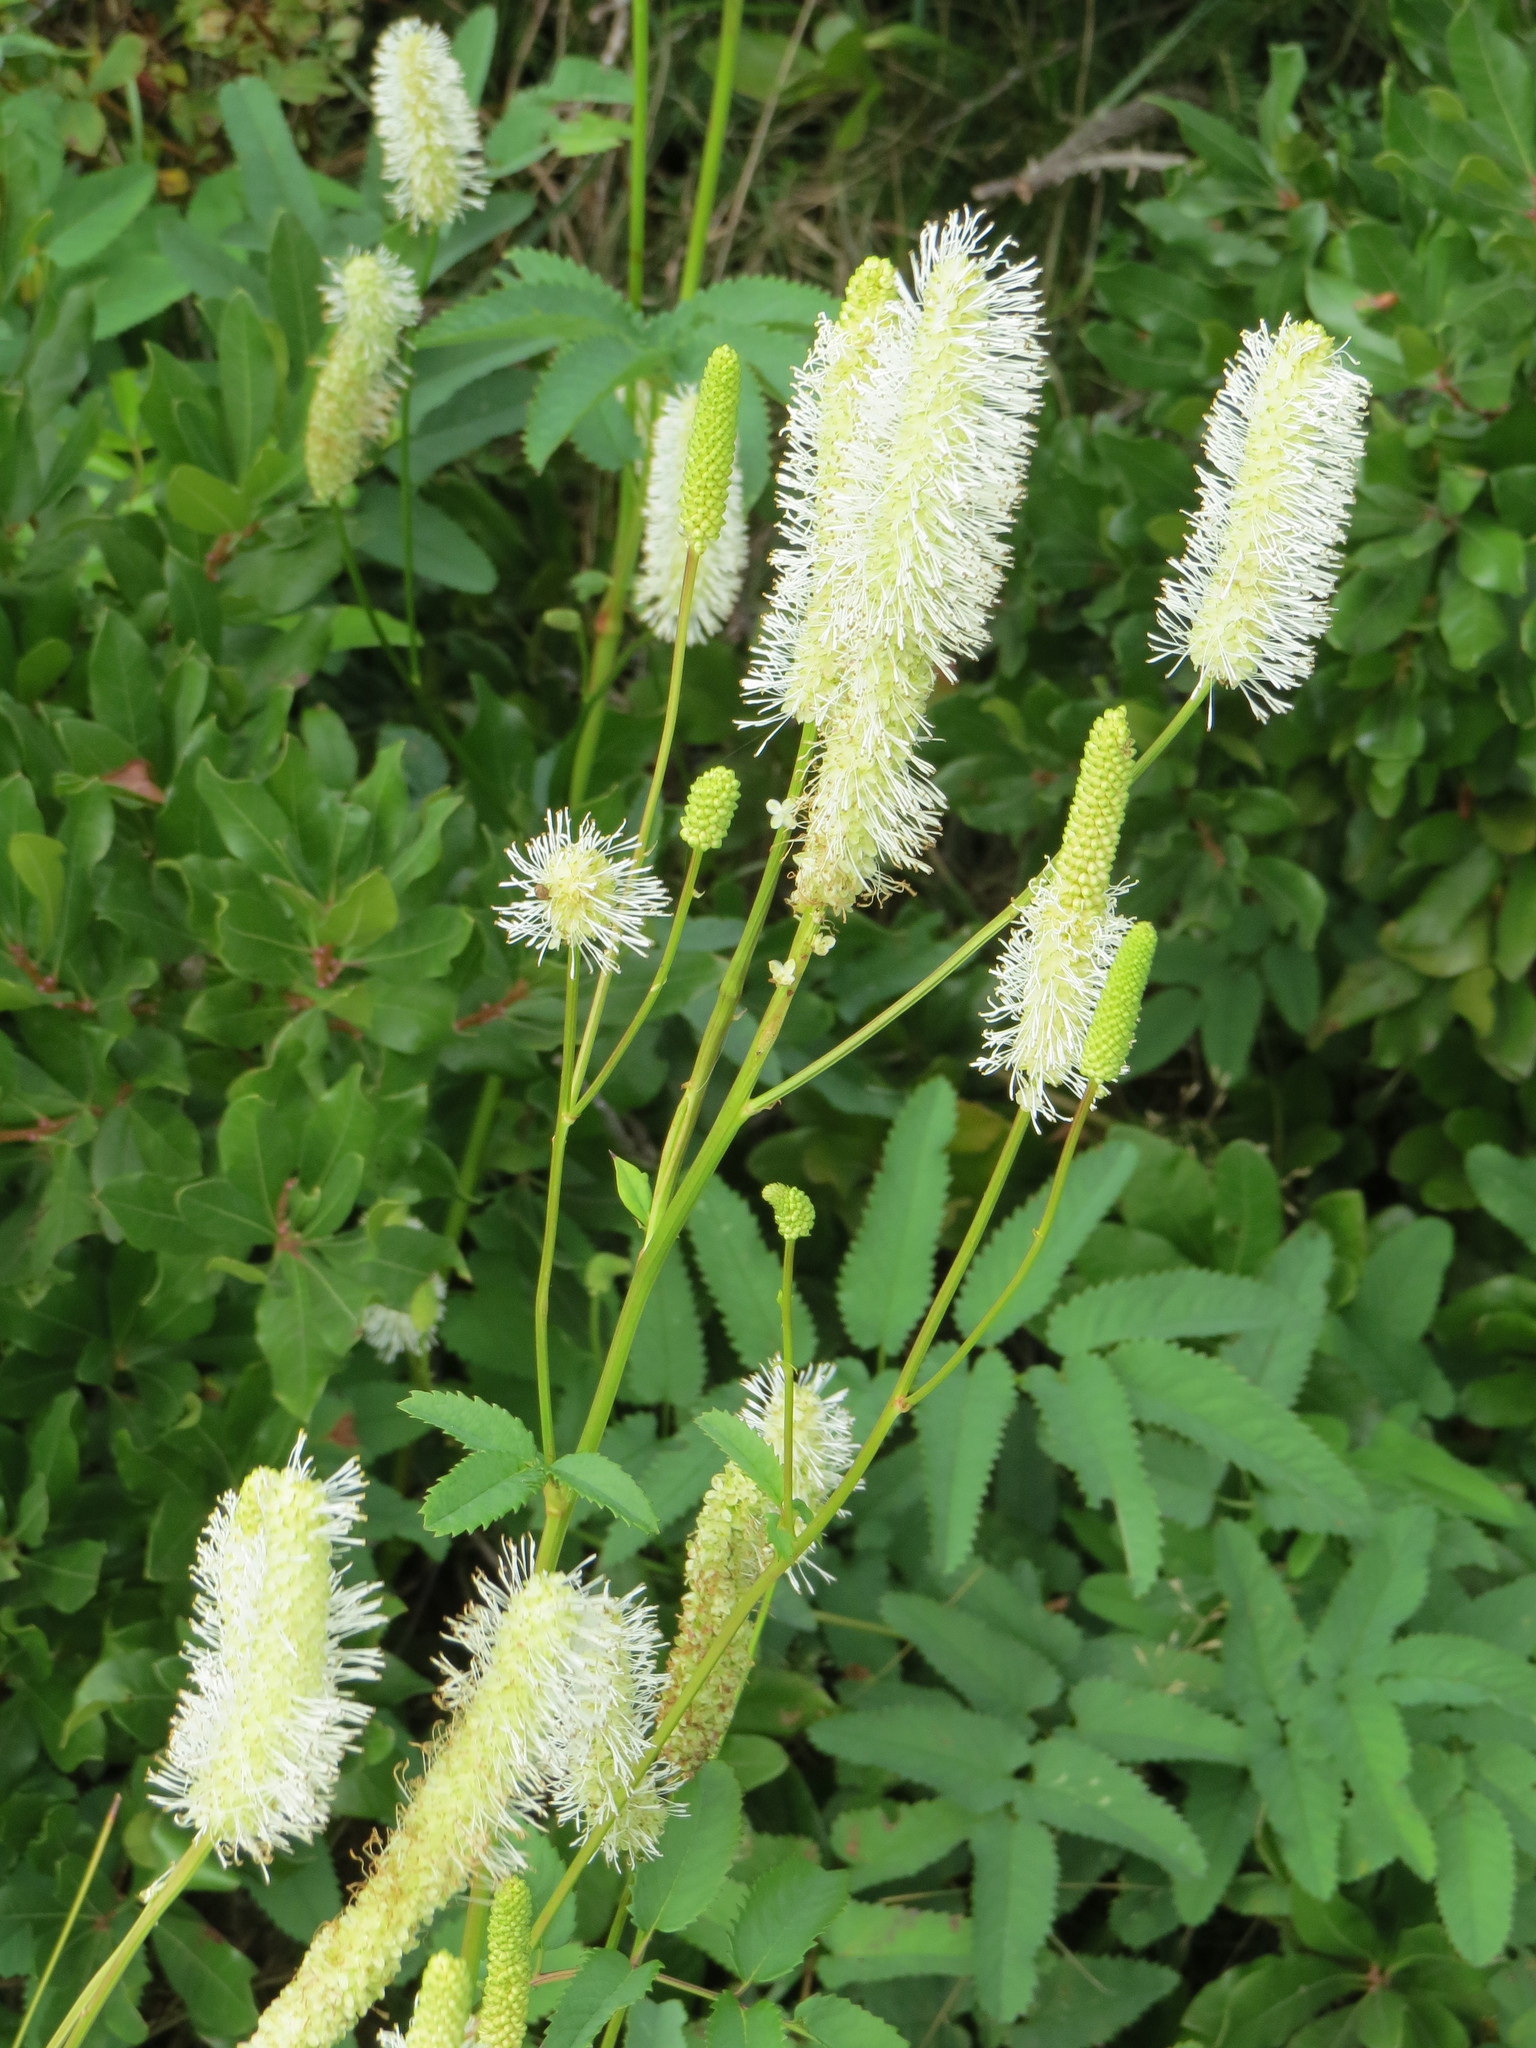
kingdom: Plantae
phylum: Tracheophyta
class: Magnoliopsida
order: Rosales
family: Rosaceae
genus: Sanguisorba
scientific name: Sanguisorba canadensis
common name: White burnet
